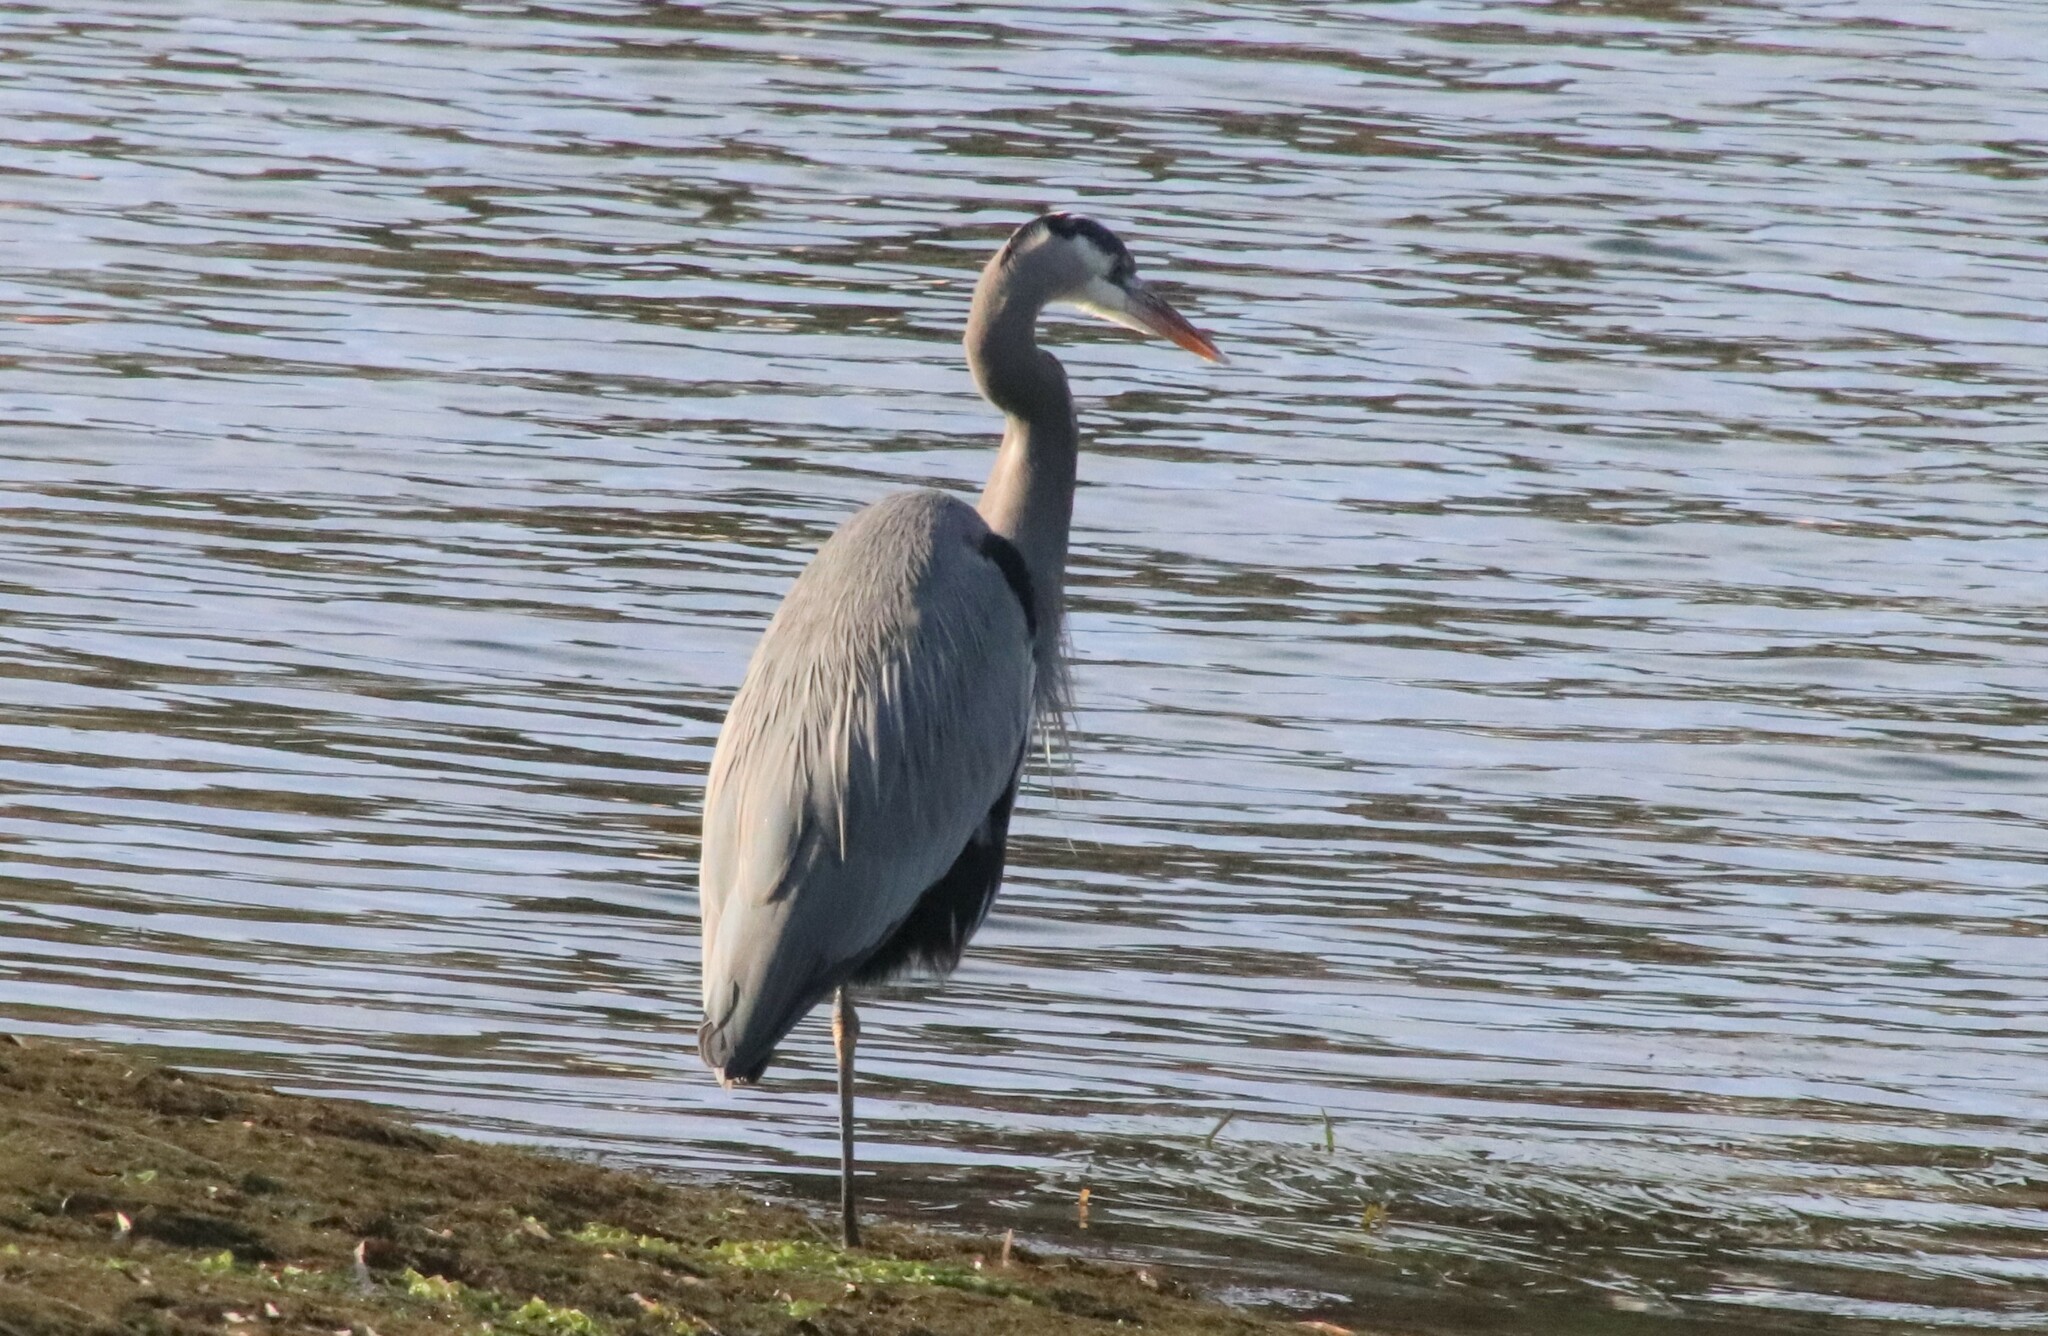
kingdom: Animalia
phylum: Chordata
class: Aves
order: Pelecaniformes
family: Ardeidae
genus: Ardea
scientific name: Ardea herodias
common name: Great blue heron
